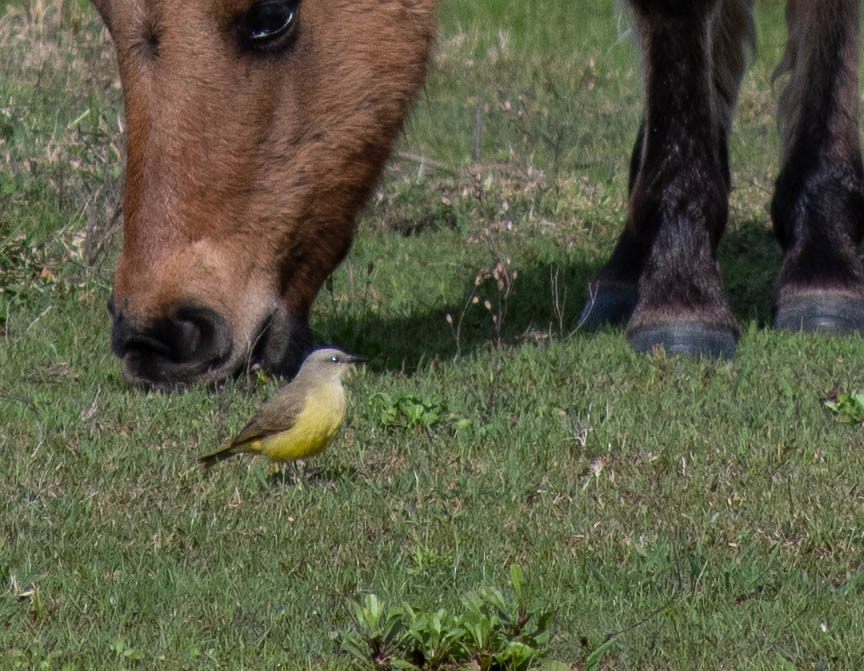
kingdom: Animalia
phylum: Chordata
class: Aves
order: Passeriformes
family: Tyrannidae
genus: Machetornis
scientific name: Machetornis rixosa
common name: Cattle tyrant
